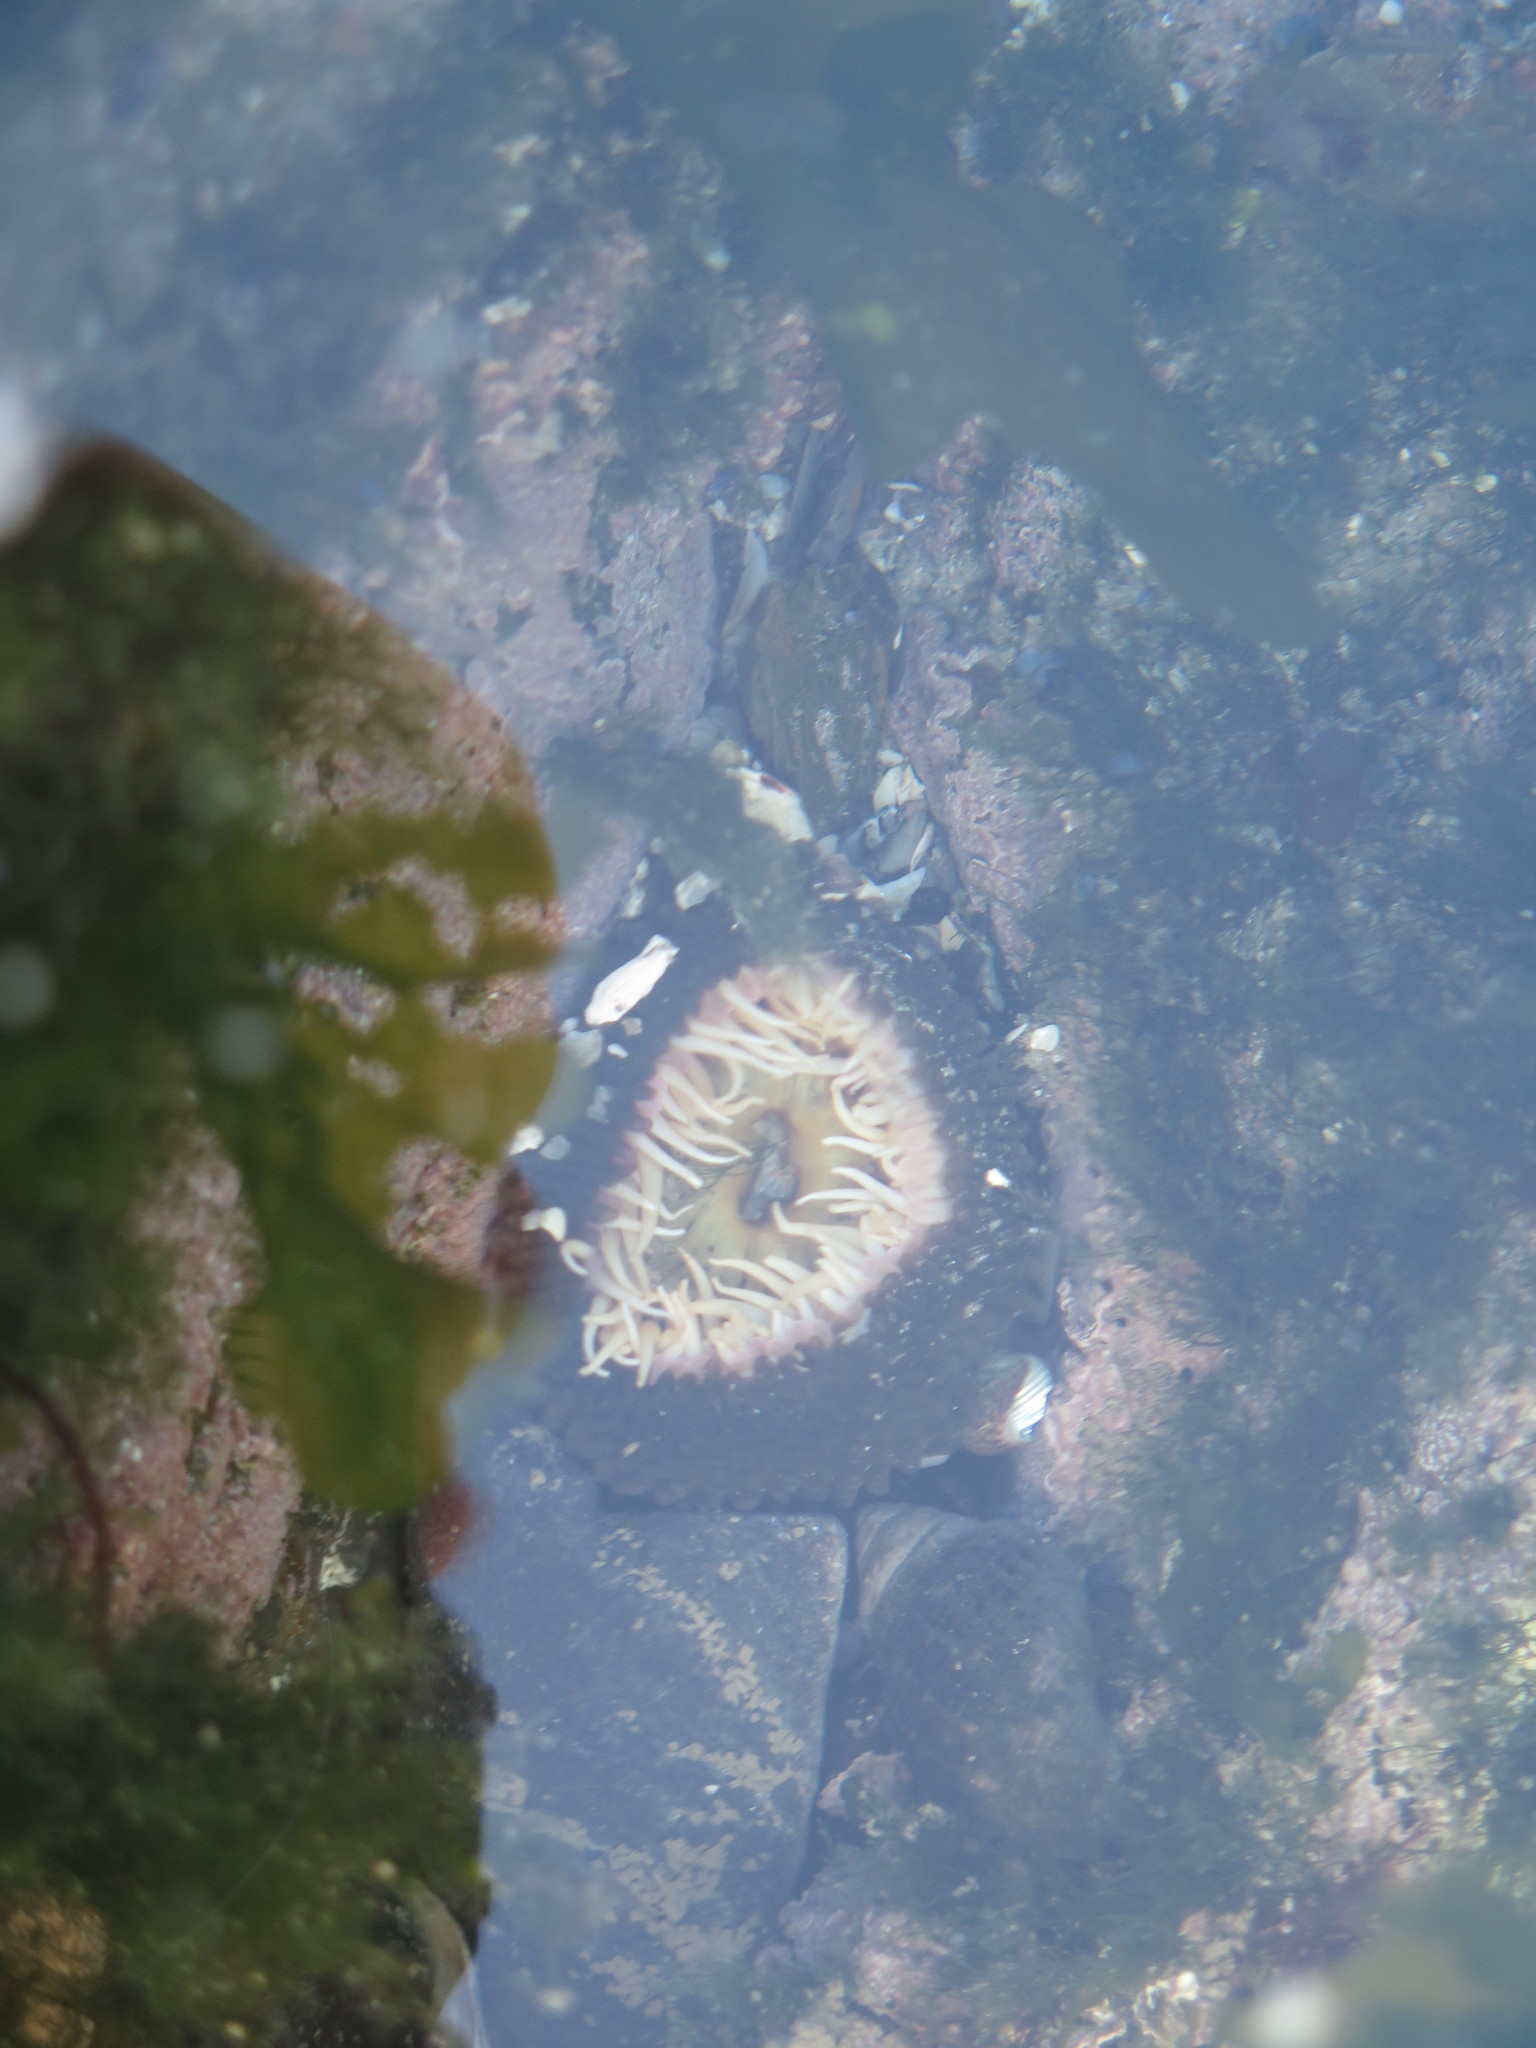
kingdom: Animalia
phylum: Cnidaria
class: Anthozoa
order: Actiniaria
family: Actiniidae
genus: Bunodactis
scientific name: Bunodactis reynaudi
